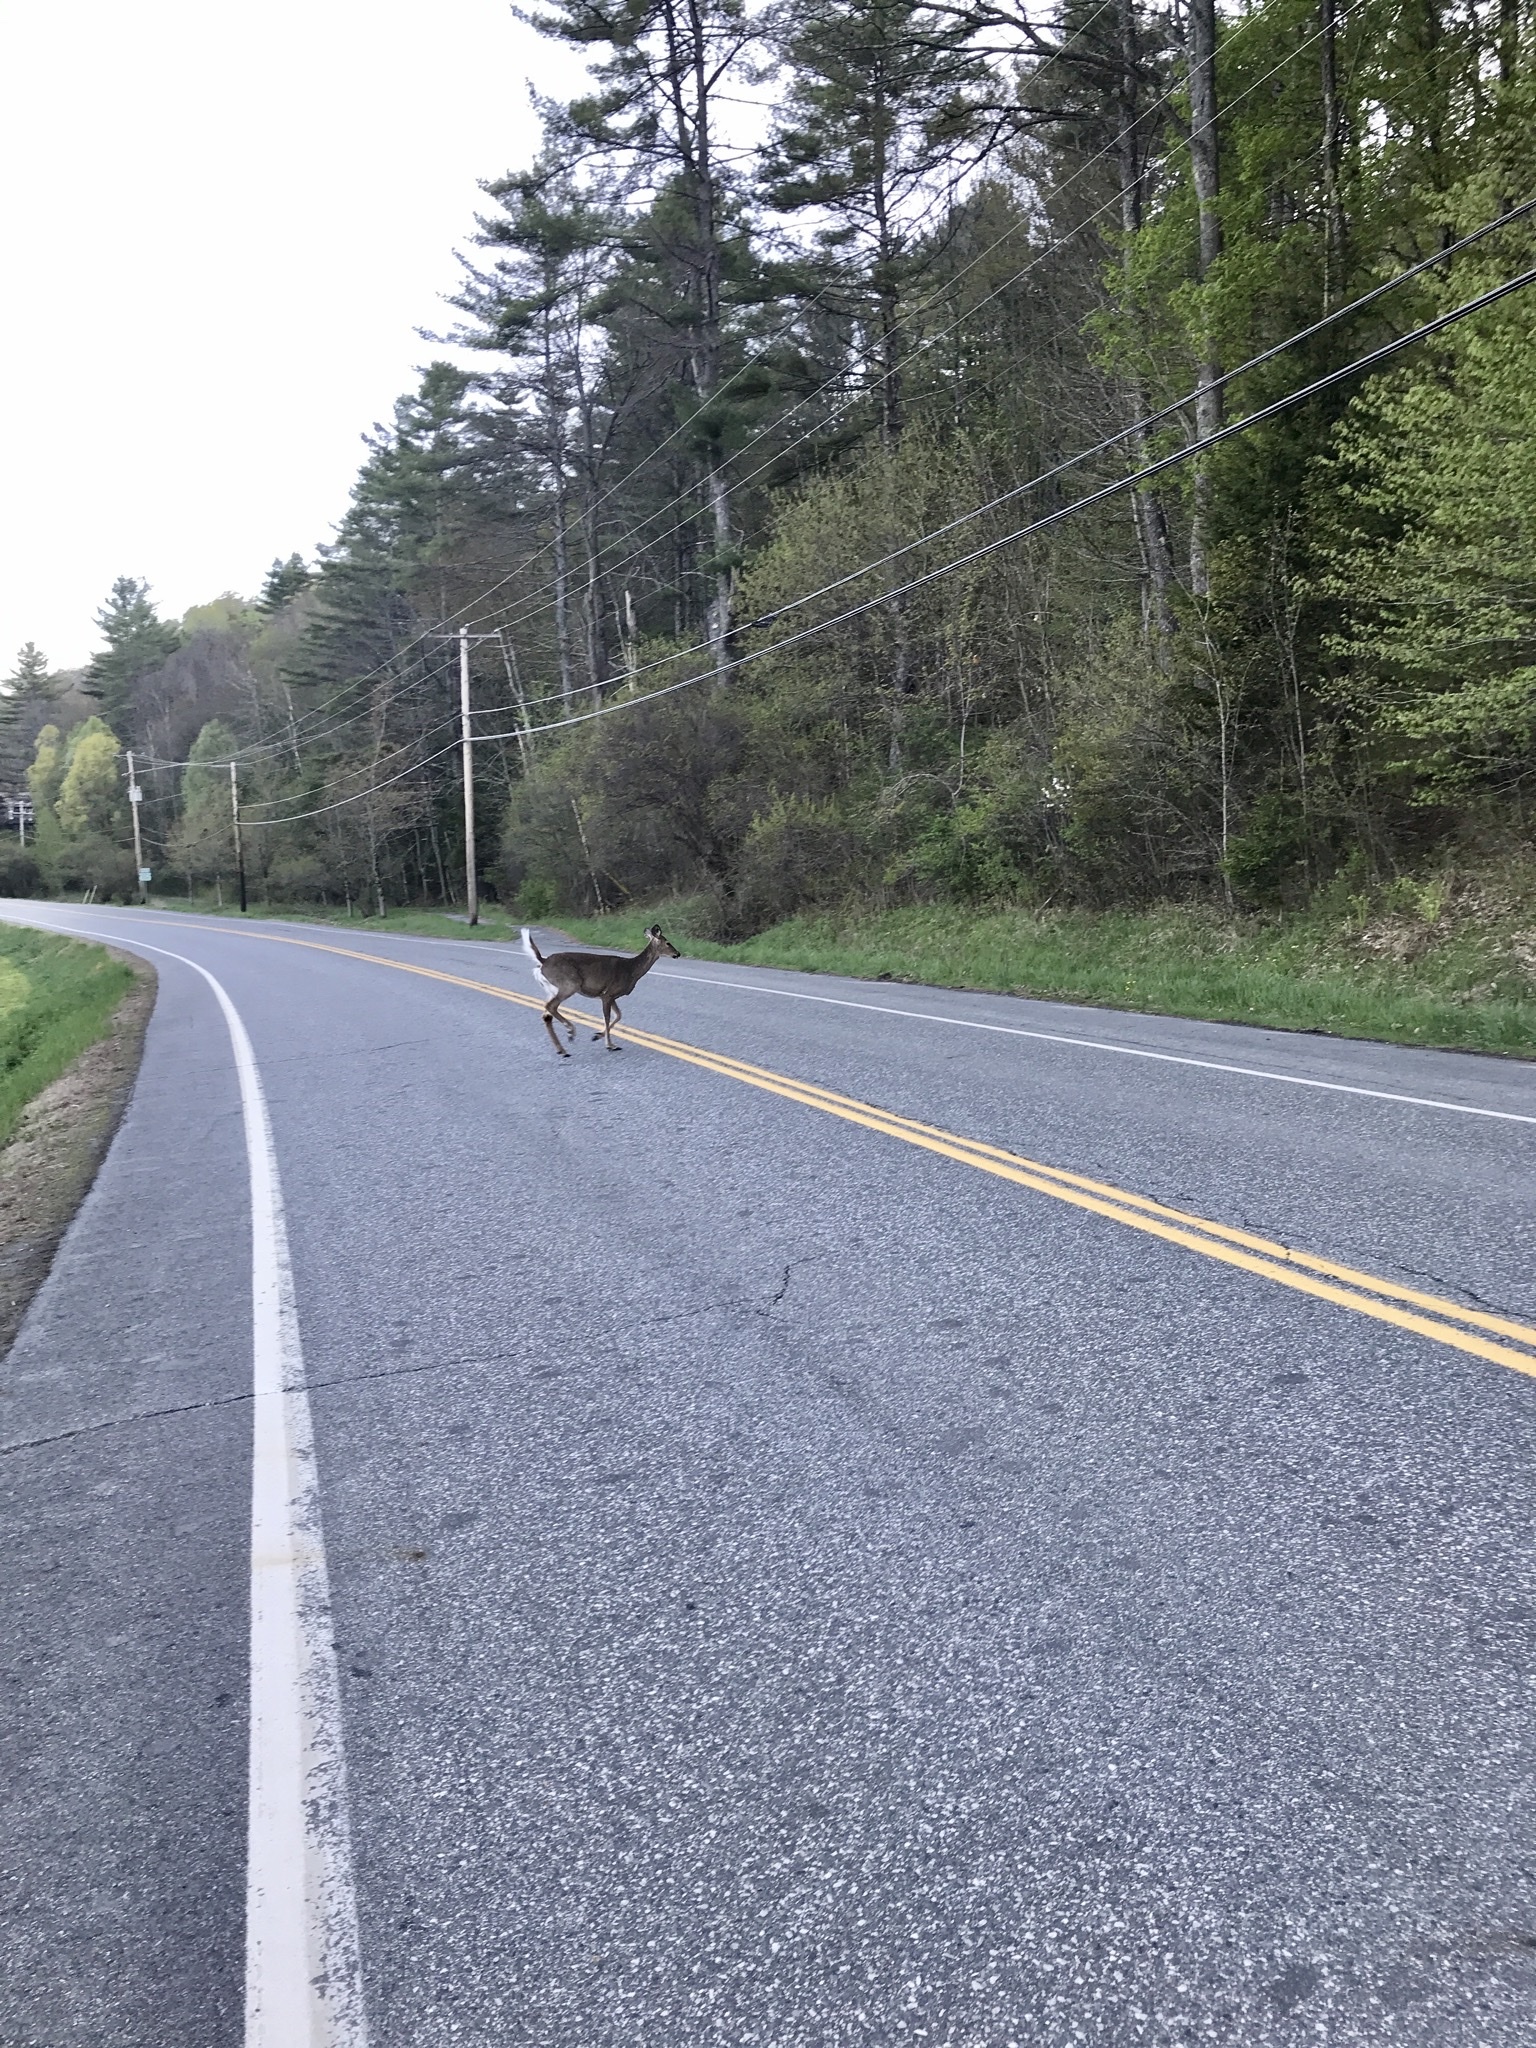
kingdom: Animalia
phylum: Chordata
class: Mammalia
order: Artiodactyla
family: Cervidae
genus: Odocoileus
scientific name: Odocoileus virginianus
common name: White-tailed deer
